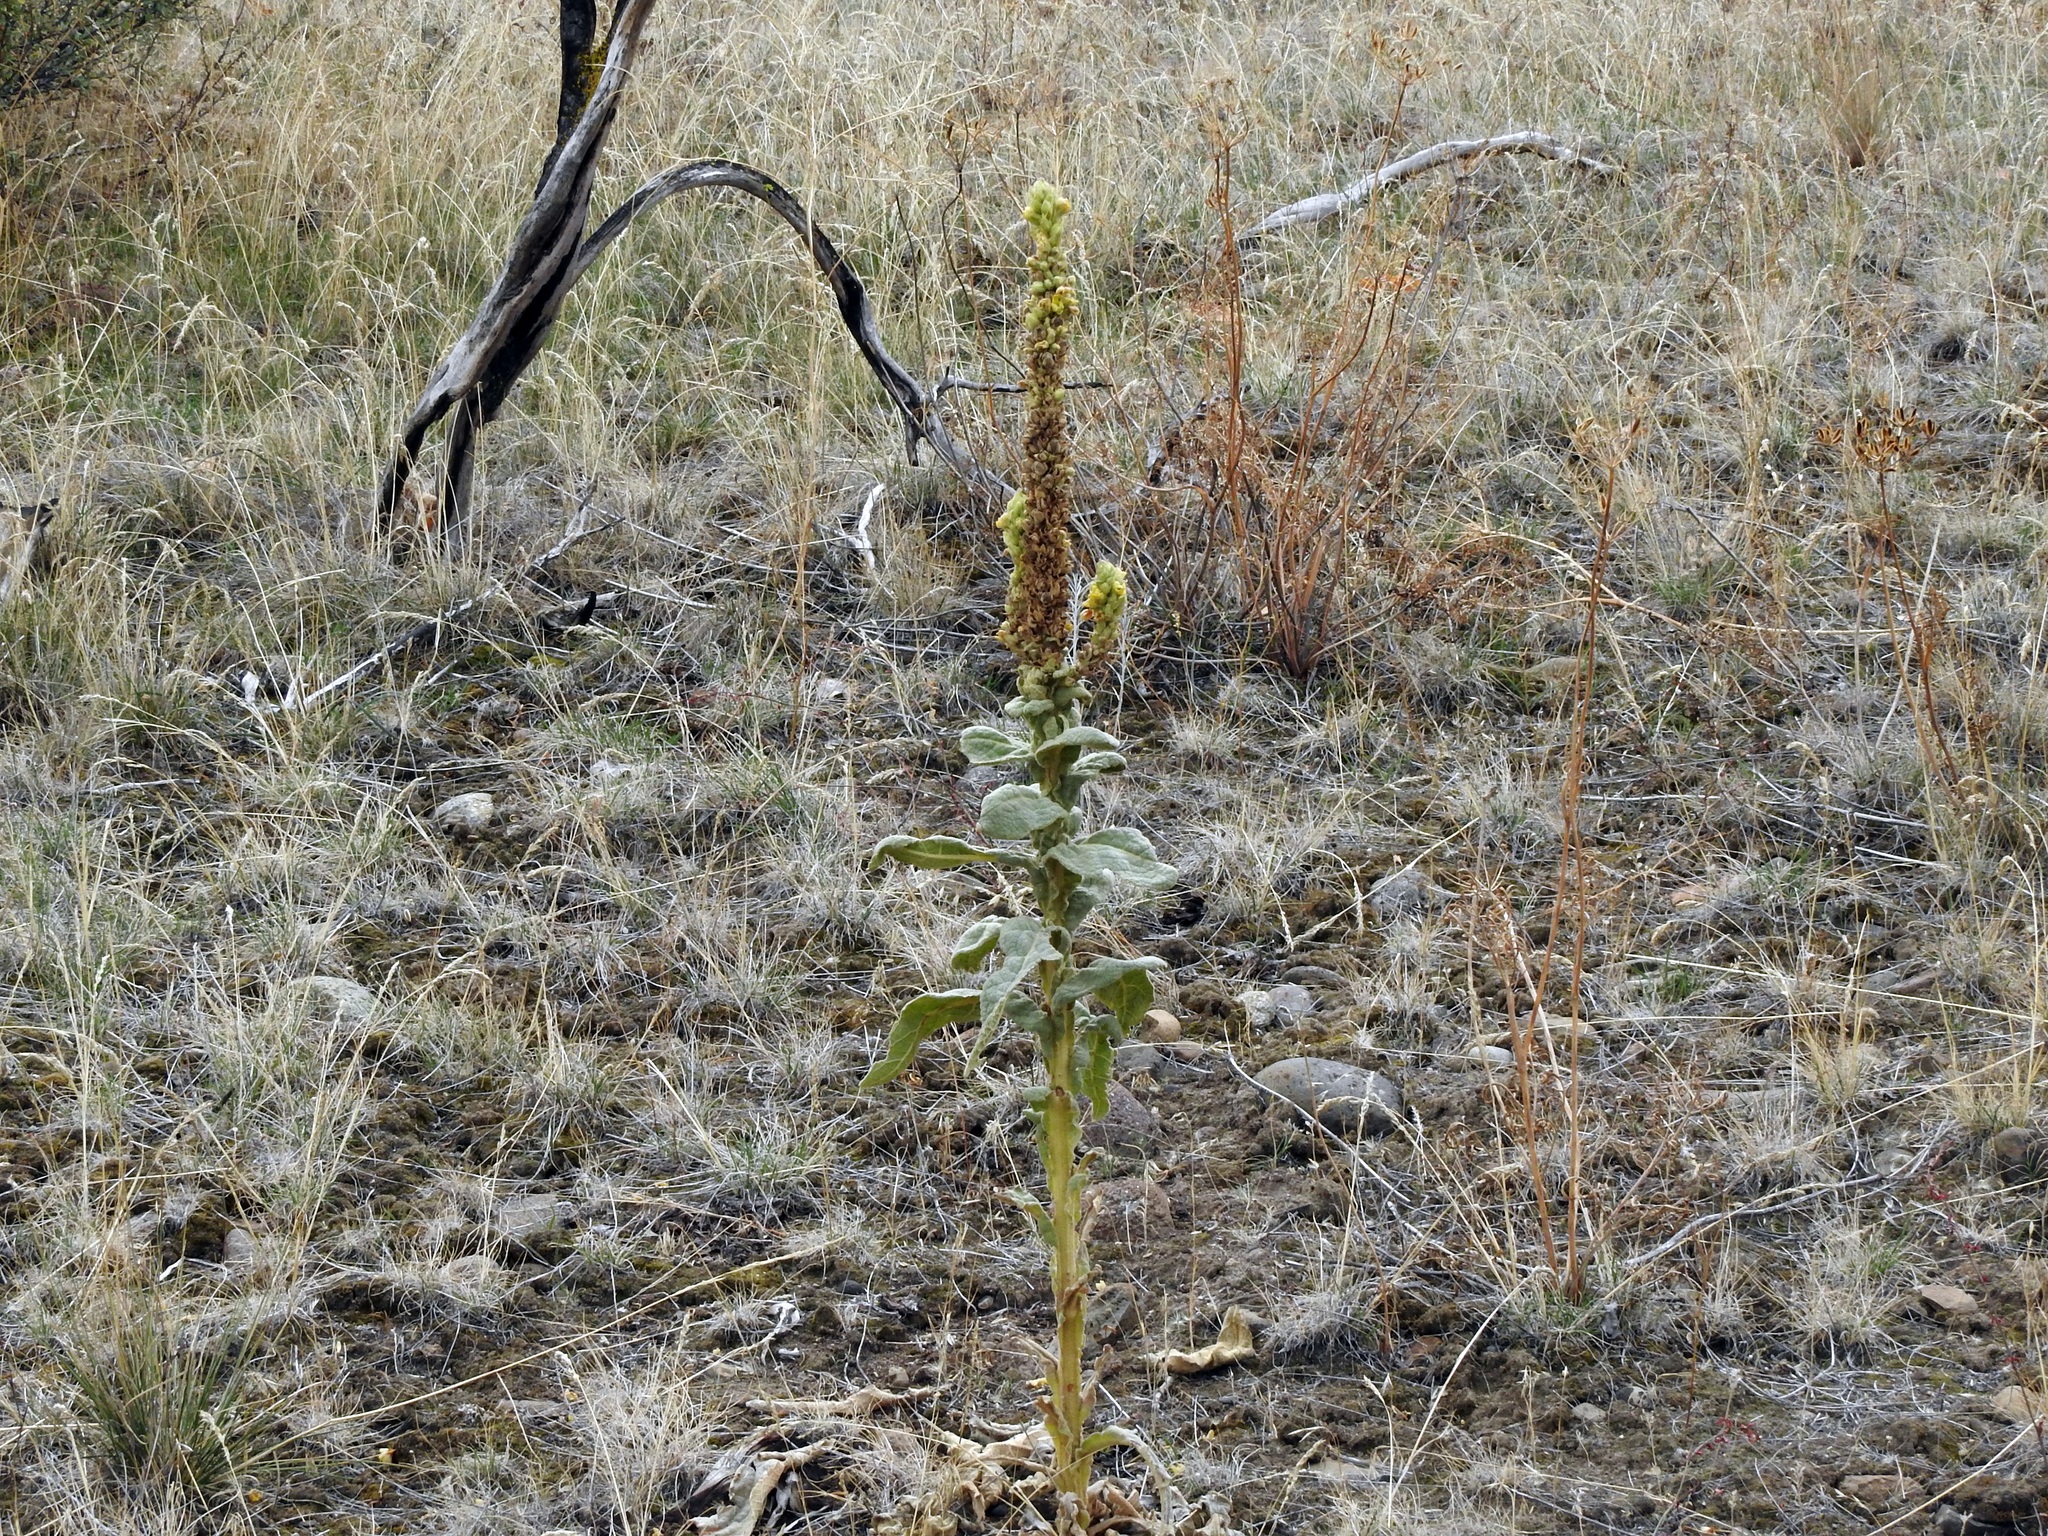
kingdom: Plantae
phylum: Tracheophyta
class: Magnoliopsida
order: Lamiales
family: Scrophulariaceae
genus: Verbascum
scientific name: Verbascum thapsus
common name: Common mullein
